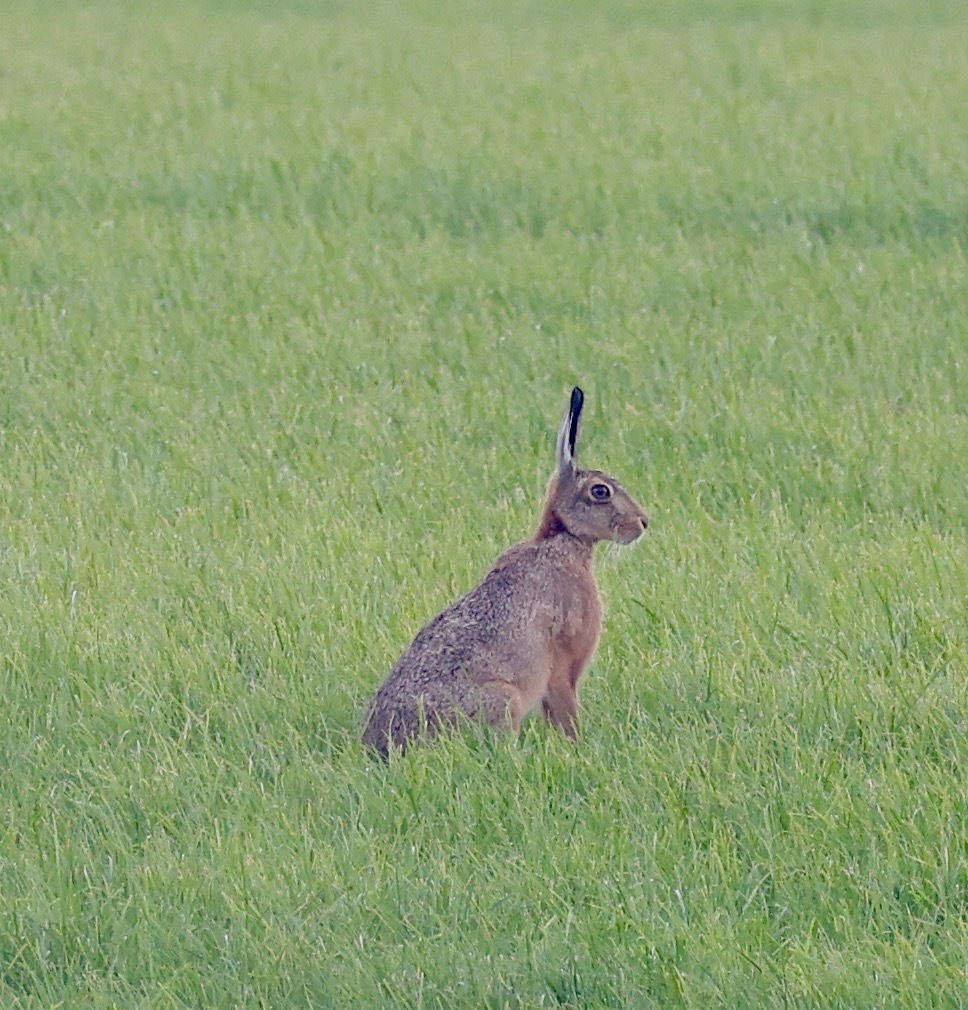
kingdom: Animalia
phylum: Chordata
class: Mammalia
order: Lagomorpha
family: Leporidae
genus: Lepus
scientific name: Lepus europaeus
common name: European hare
